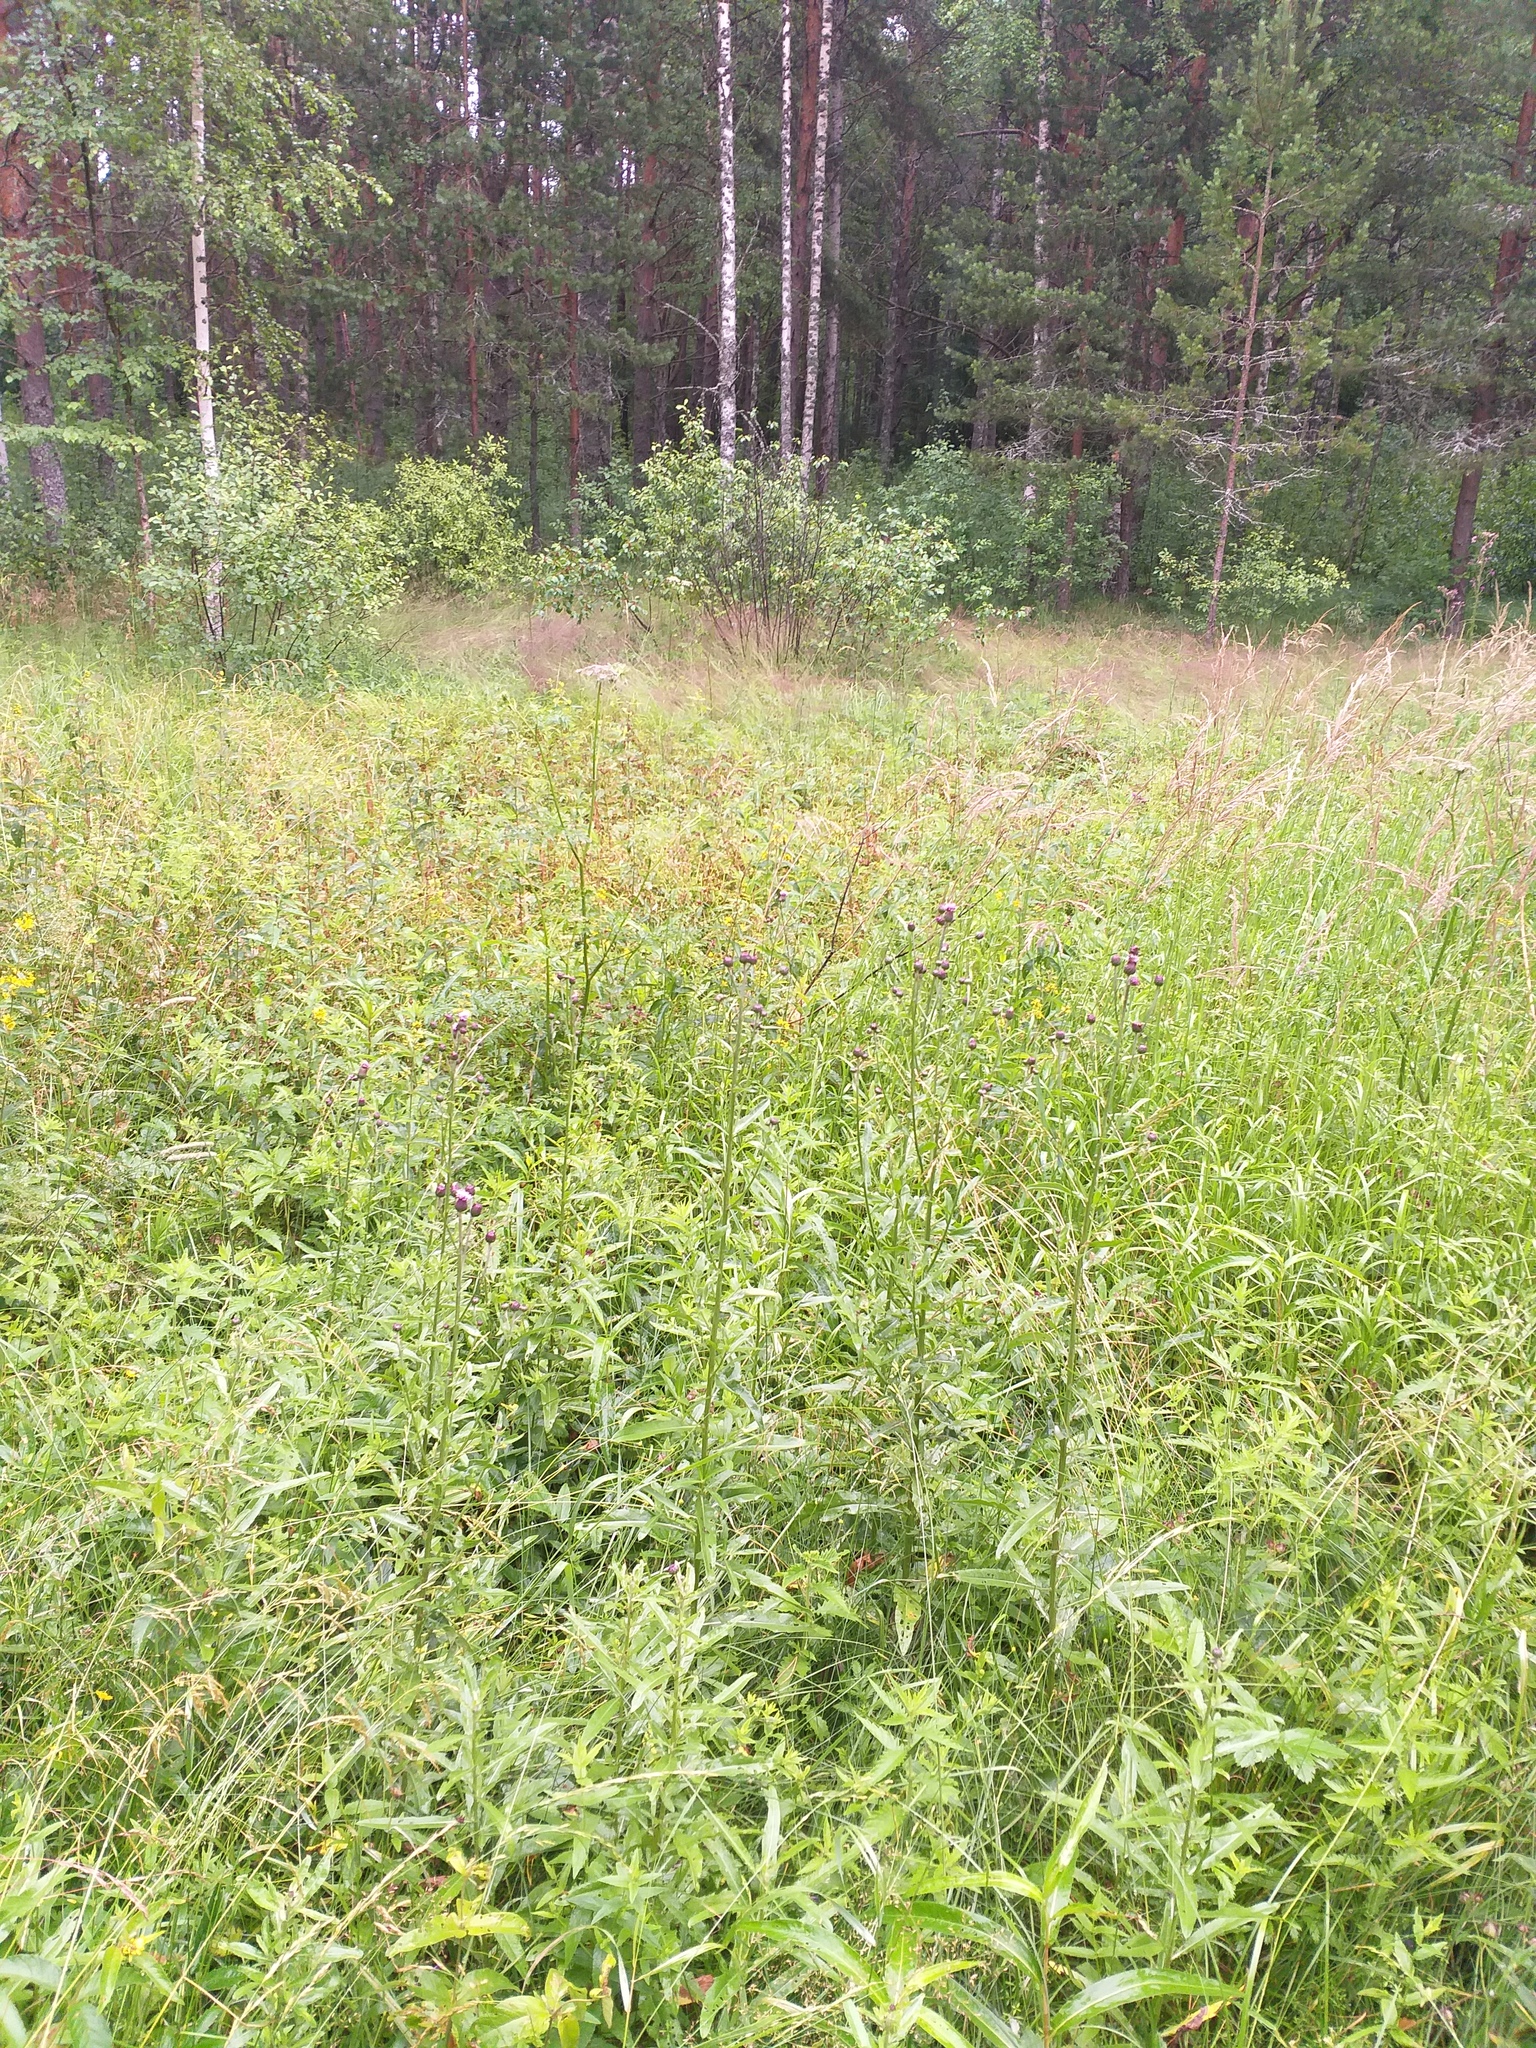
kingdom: Plantae
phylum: Tracheophyta
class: Magnoliopsida
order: Asterales
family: Asteraceae
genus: Cirsium
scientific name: Cirsium arvense
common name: Creeping thistle
